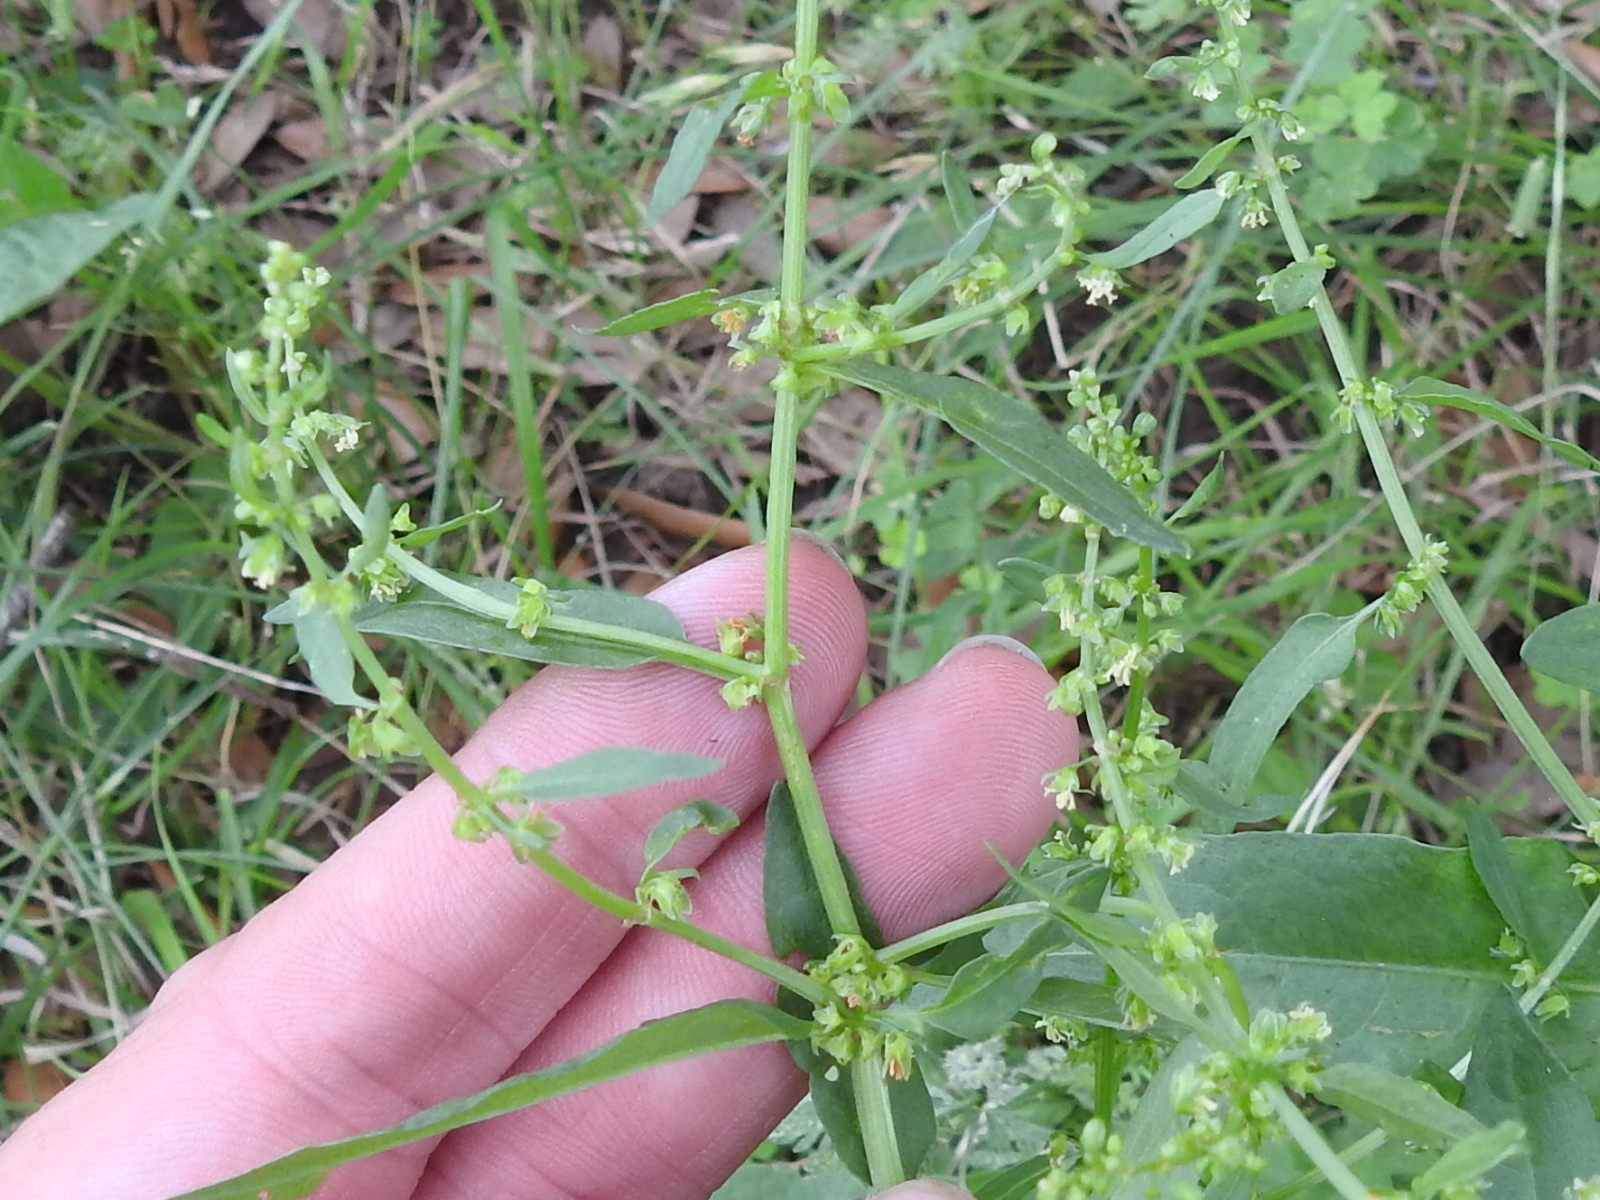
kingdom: Plantae
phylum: Tracheophyta
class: Magnoliopsida
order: Caryophyllales
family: Polygonaceae
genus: Rumex
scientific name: Rumex pulcher
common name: Fiddle dock
